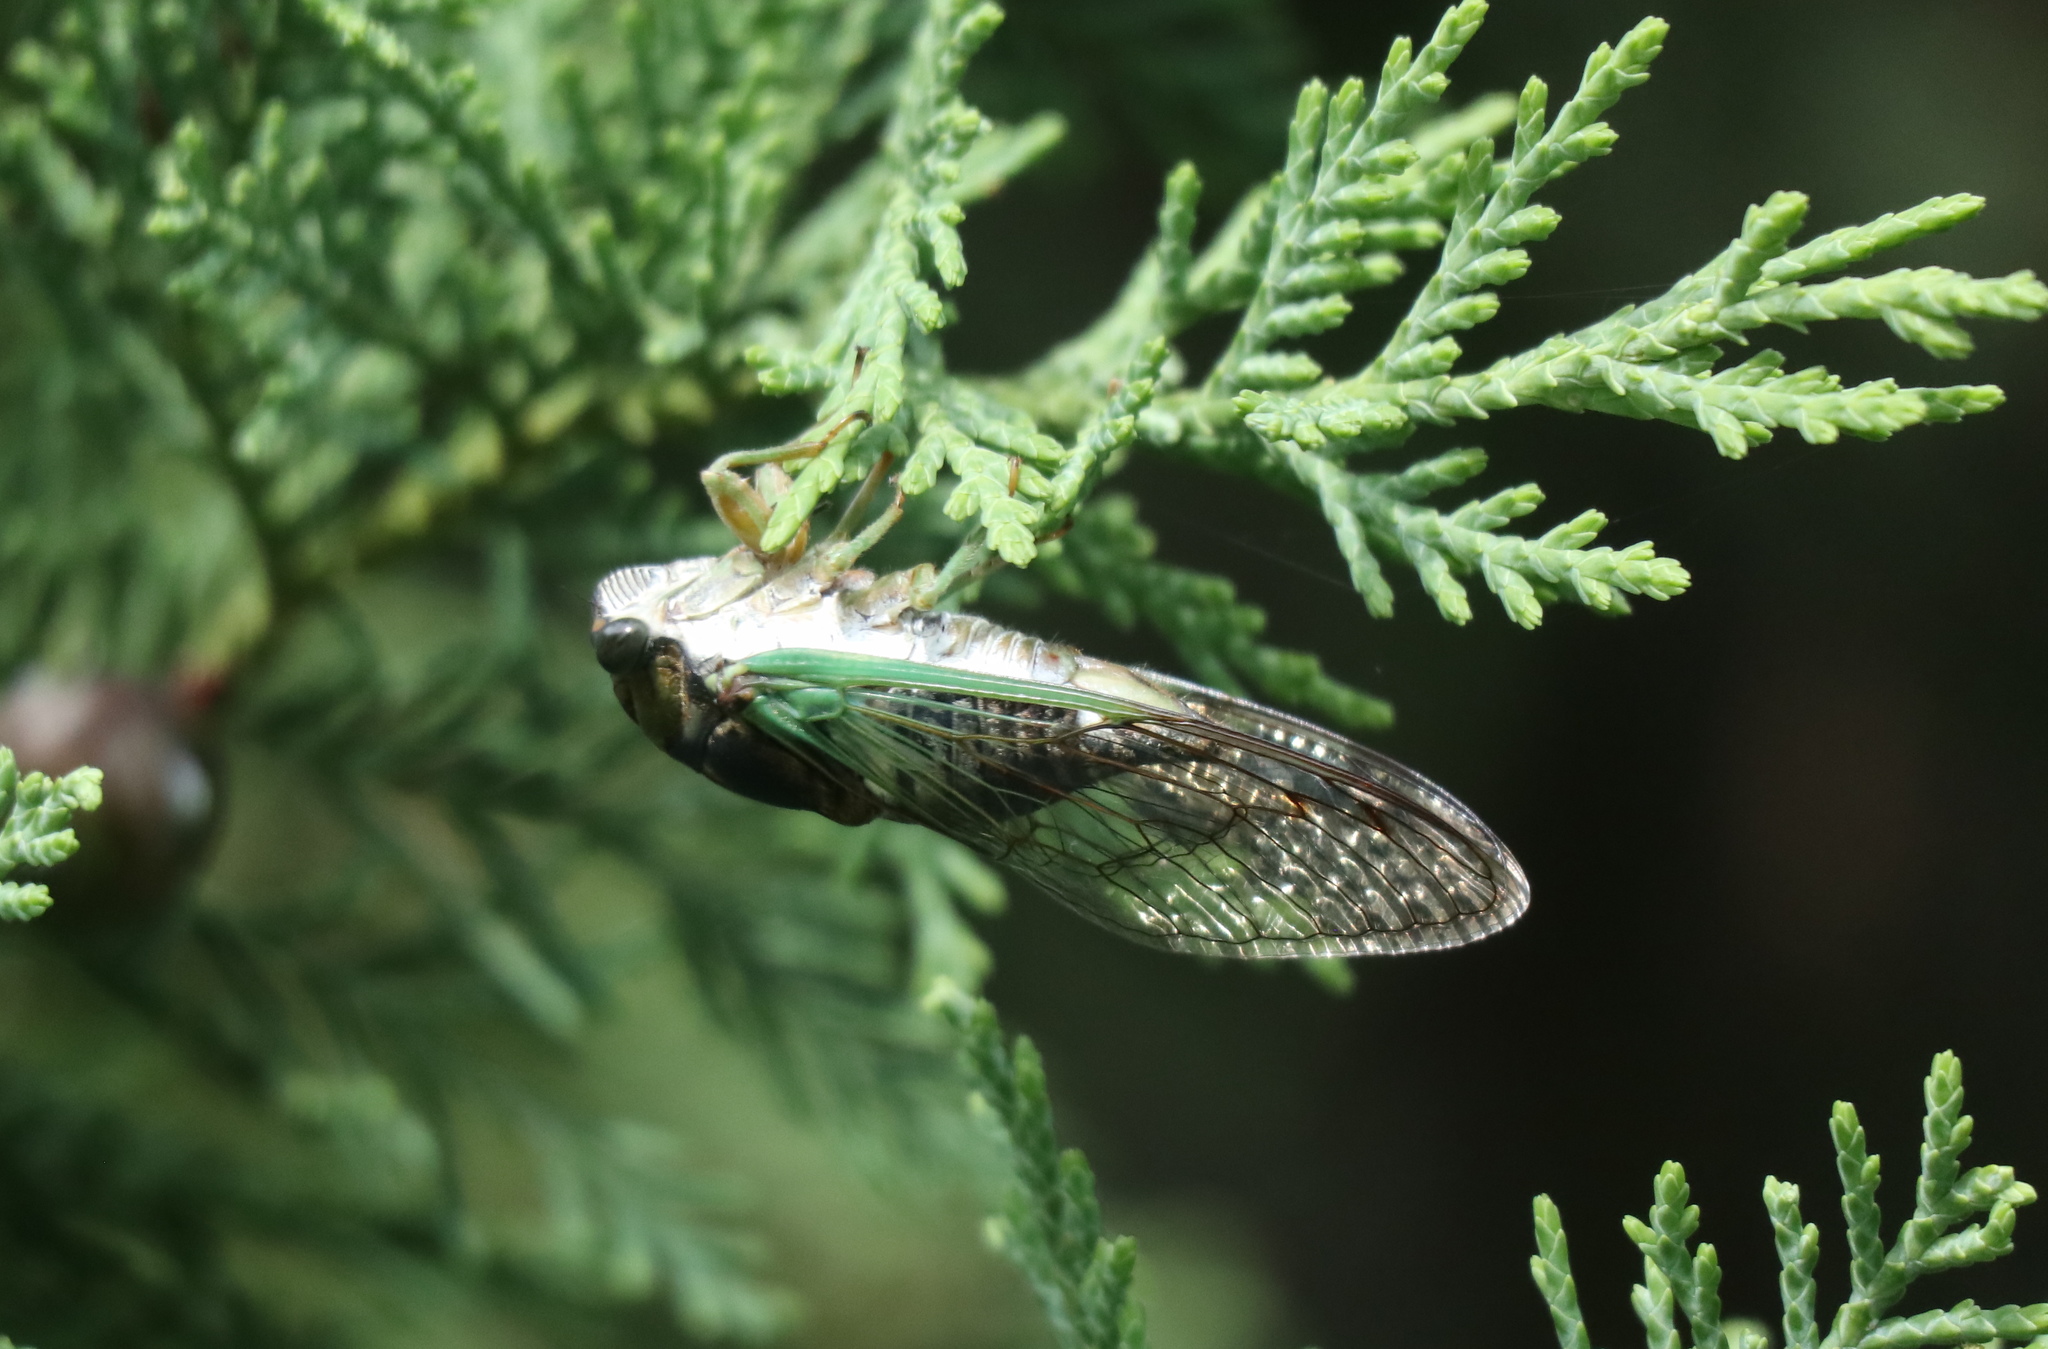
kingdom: Animalia
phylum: Arthropoda
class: Insecta
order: Hemiptera
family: Cicadidae
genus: Neotibicen
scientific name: Neotibicen tibicen
